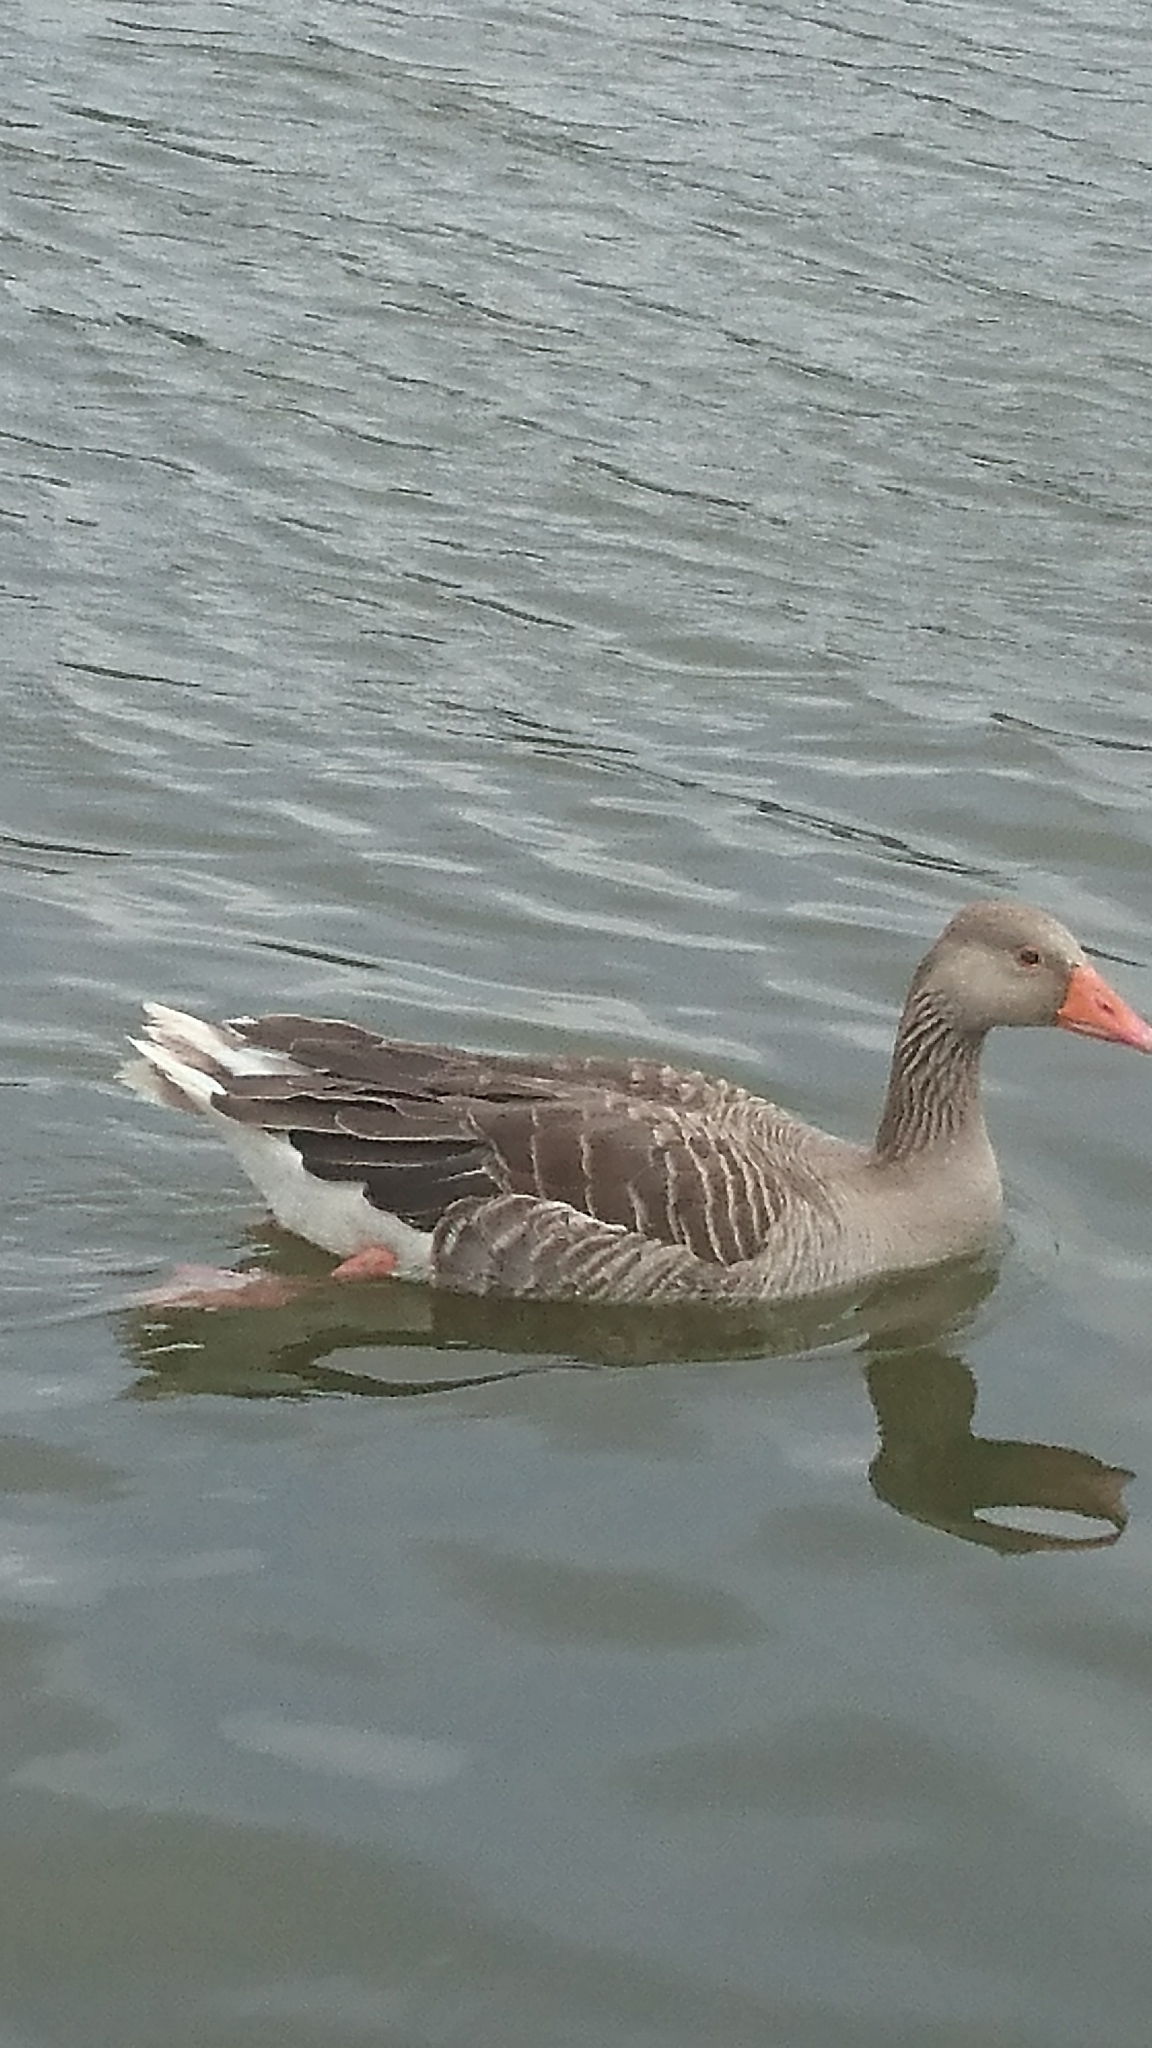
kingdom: Animalia
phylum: Chordata
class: Aves
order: Anseriformes
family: Anatidae
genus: Anser
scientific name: Anser anser
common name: Greylag goose
